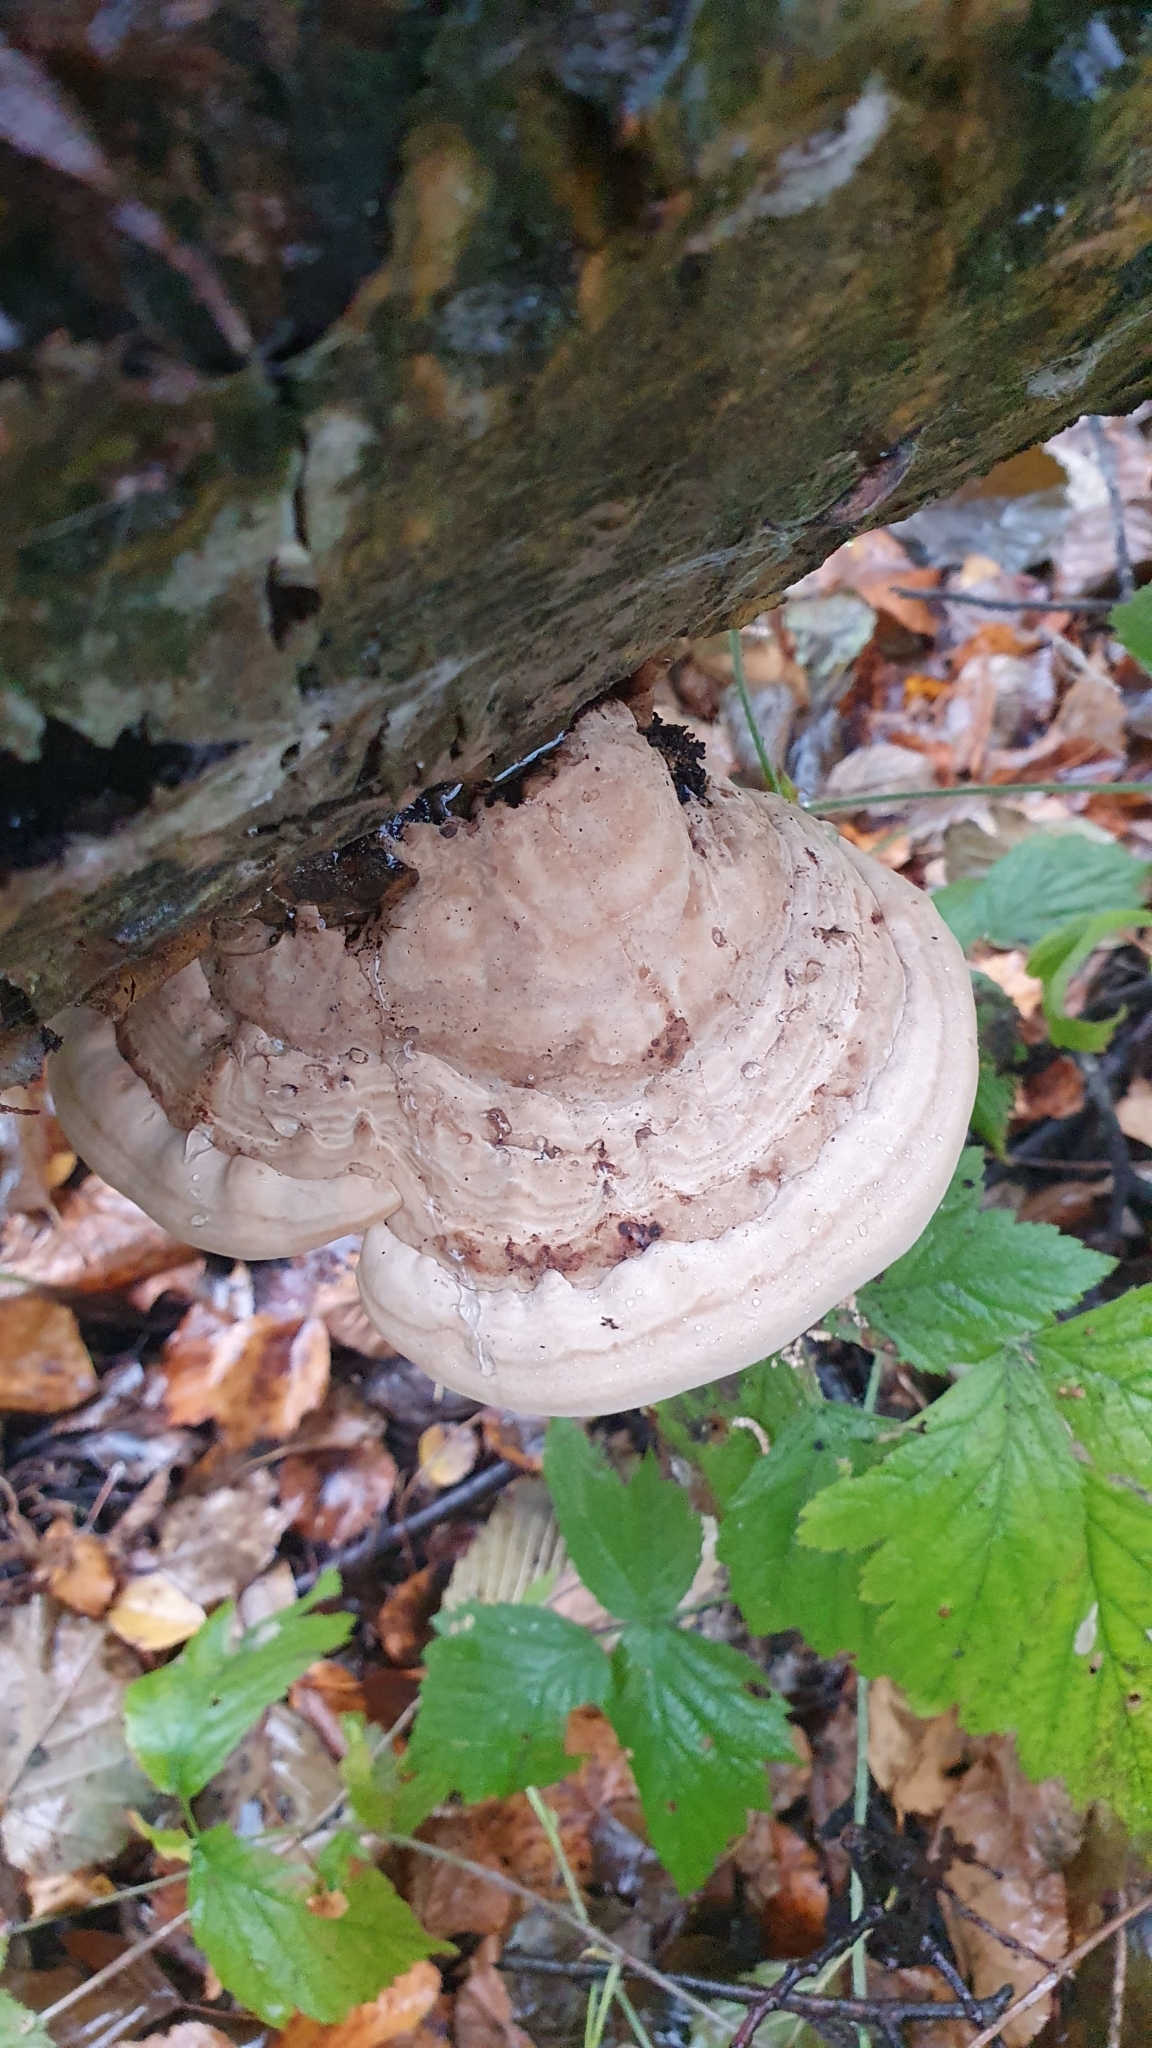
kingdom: Fungi
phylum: Basidiomycota
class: Agaricomycetes
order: Polyporales
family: Polyporaceae
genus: Fomes
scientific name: Fomes fomentarius
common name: Hoof fungus
